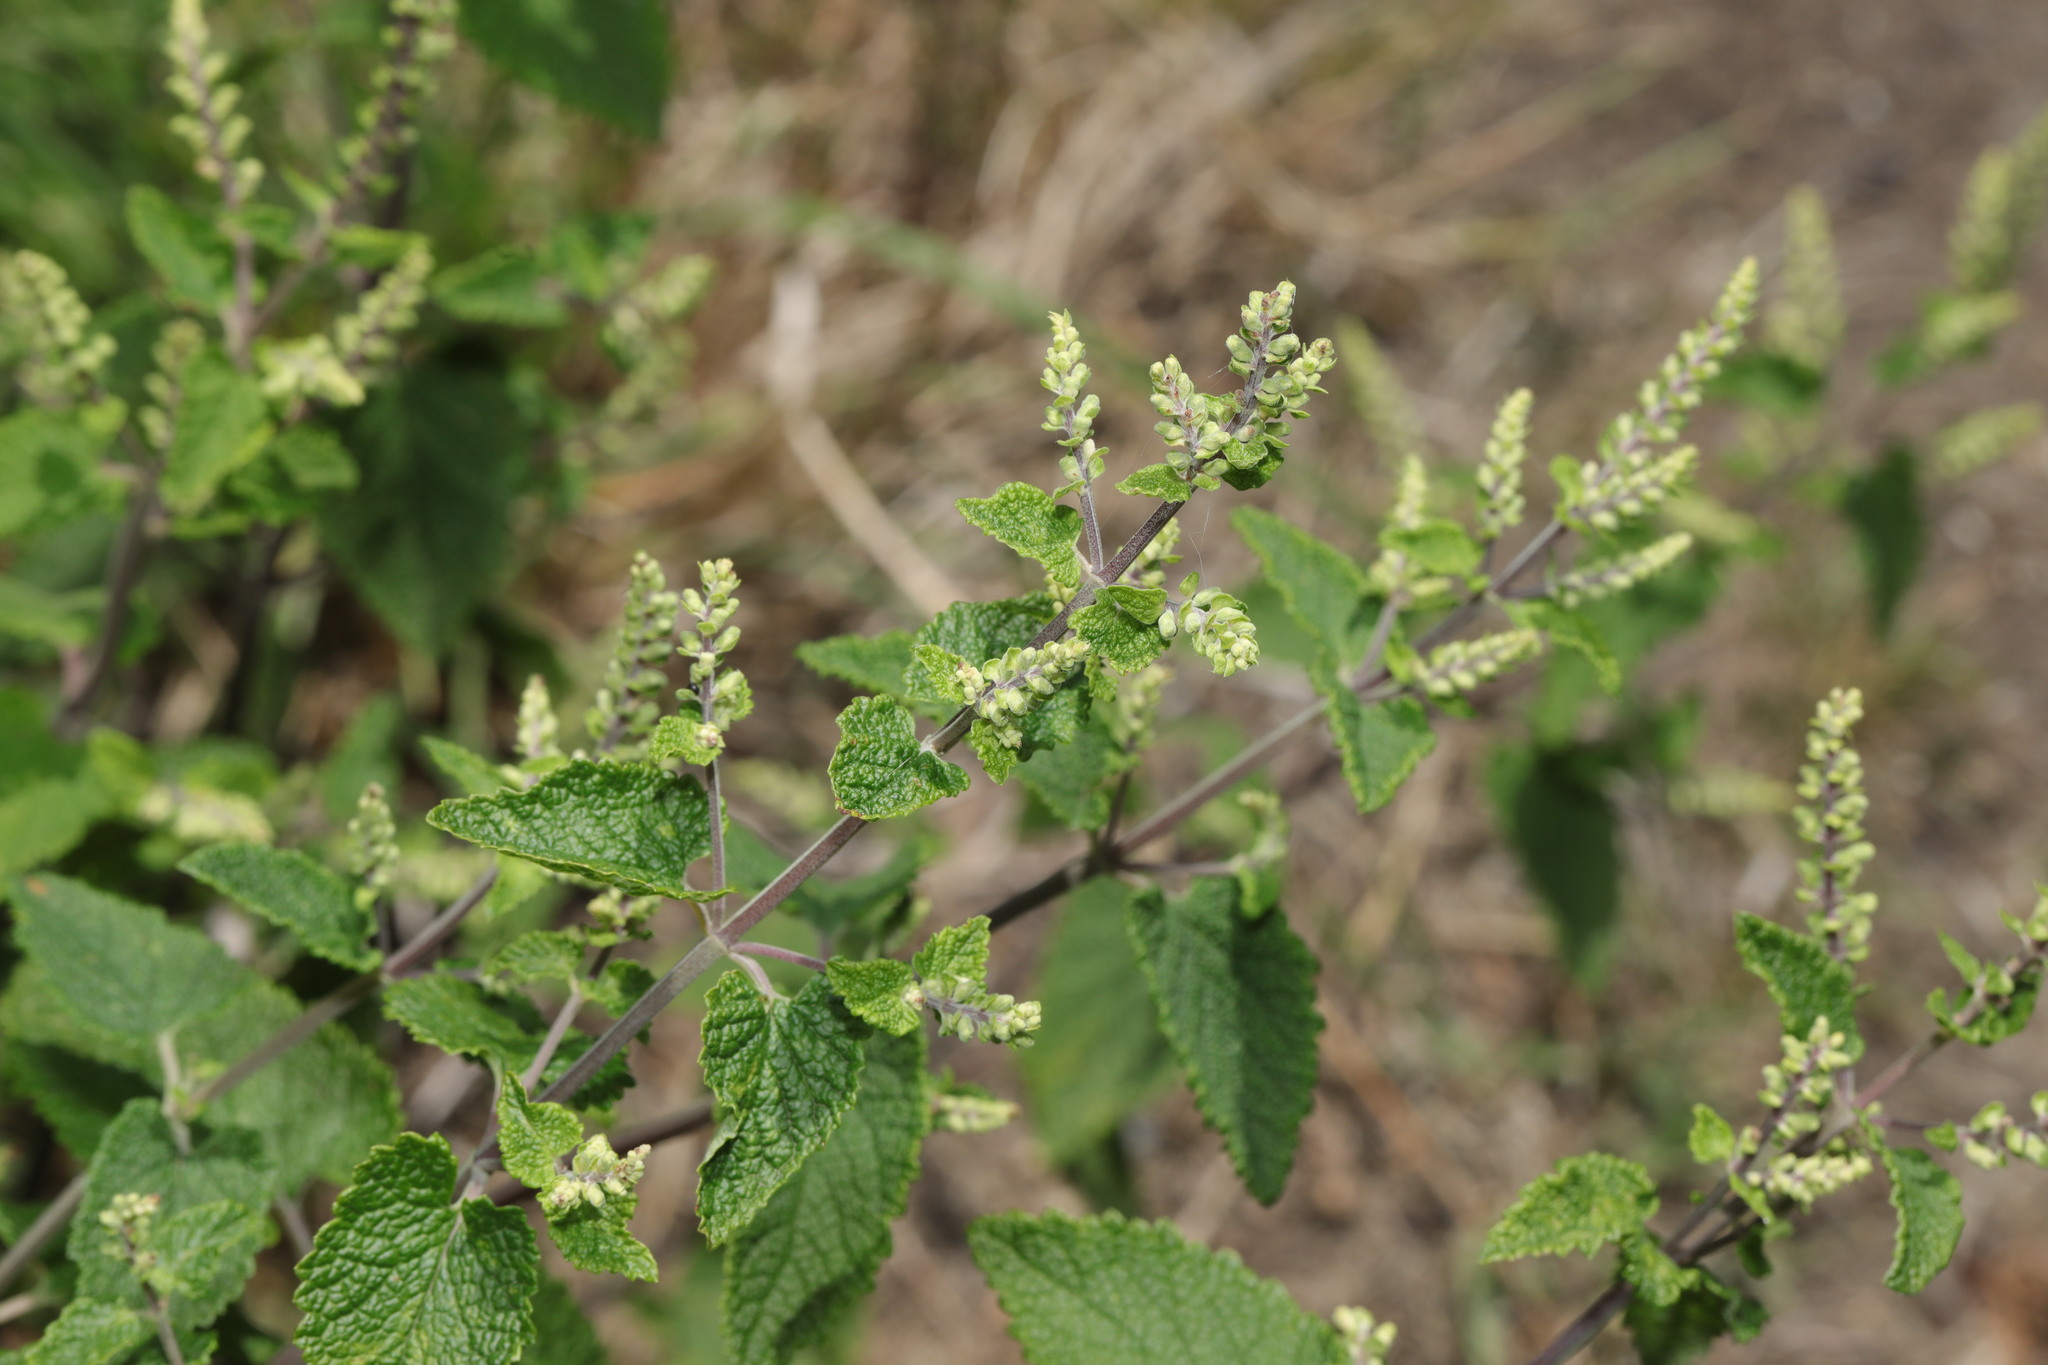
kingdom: Plantae
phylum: Tracheophyta
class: Magnoliopsida
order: Lamiales
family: Lamiaceae
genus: Teucrium
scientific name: Teucrium scorodonia
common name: Woodland germander
